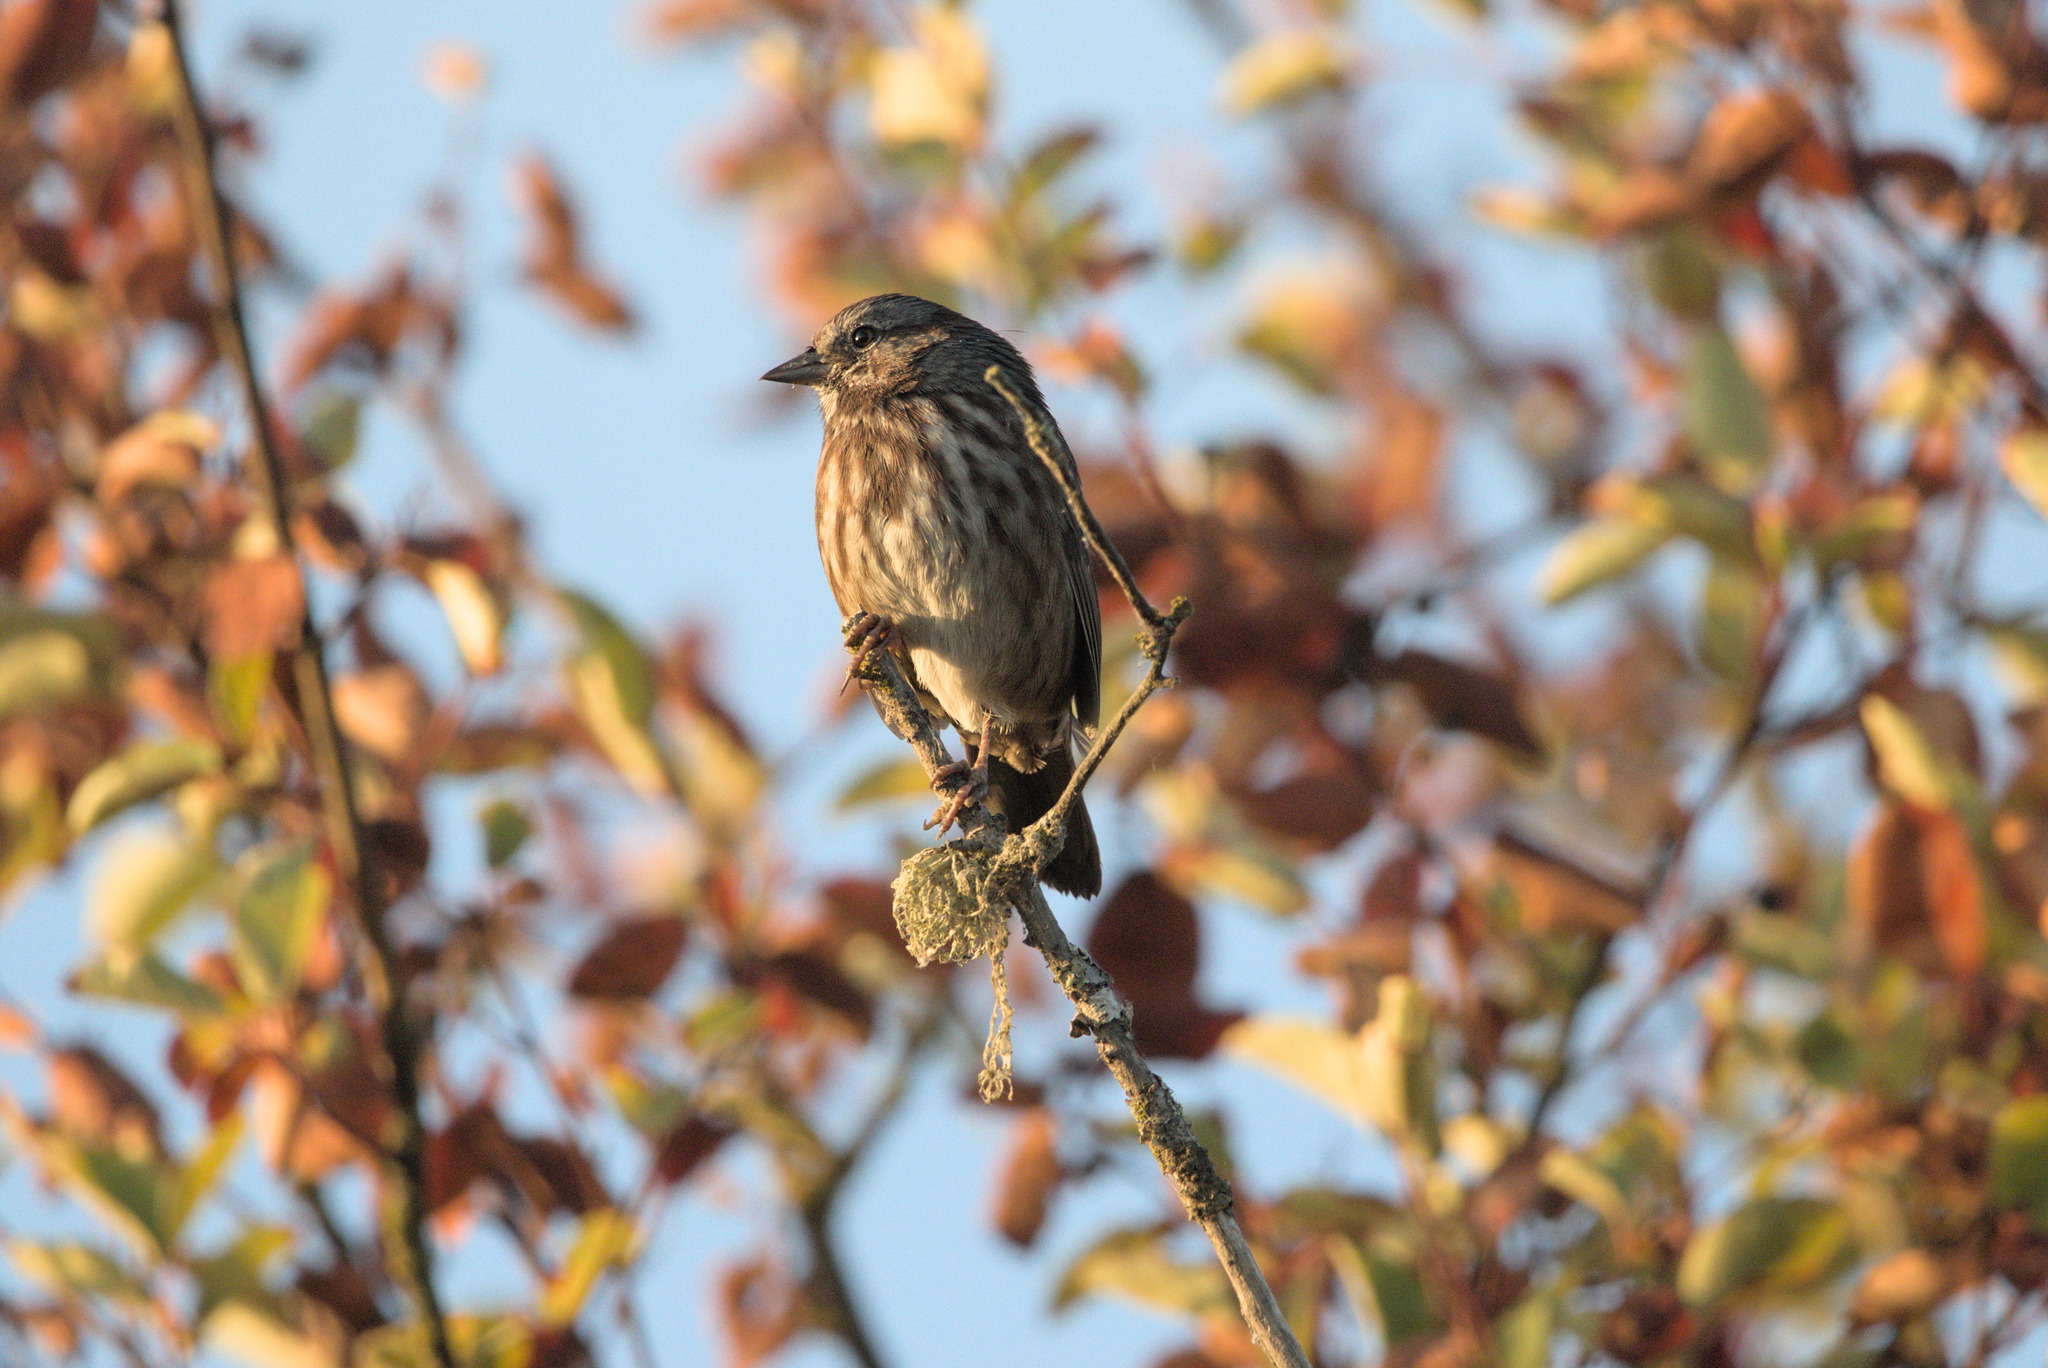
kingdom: Animalia
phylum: Chordata
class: Aves
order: Passeriformes
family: Passerellidae
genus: Melospiza
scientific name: Melospiza melodia
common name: Song sparrow
